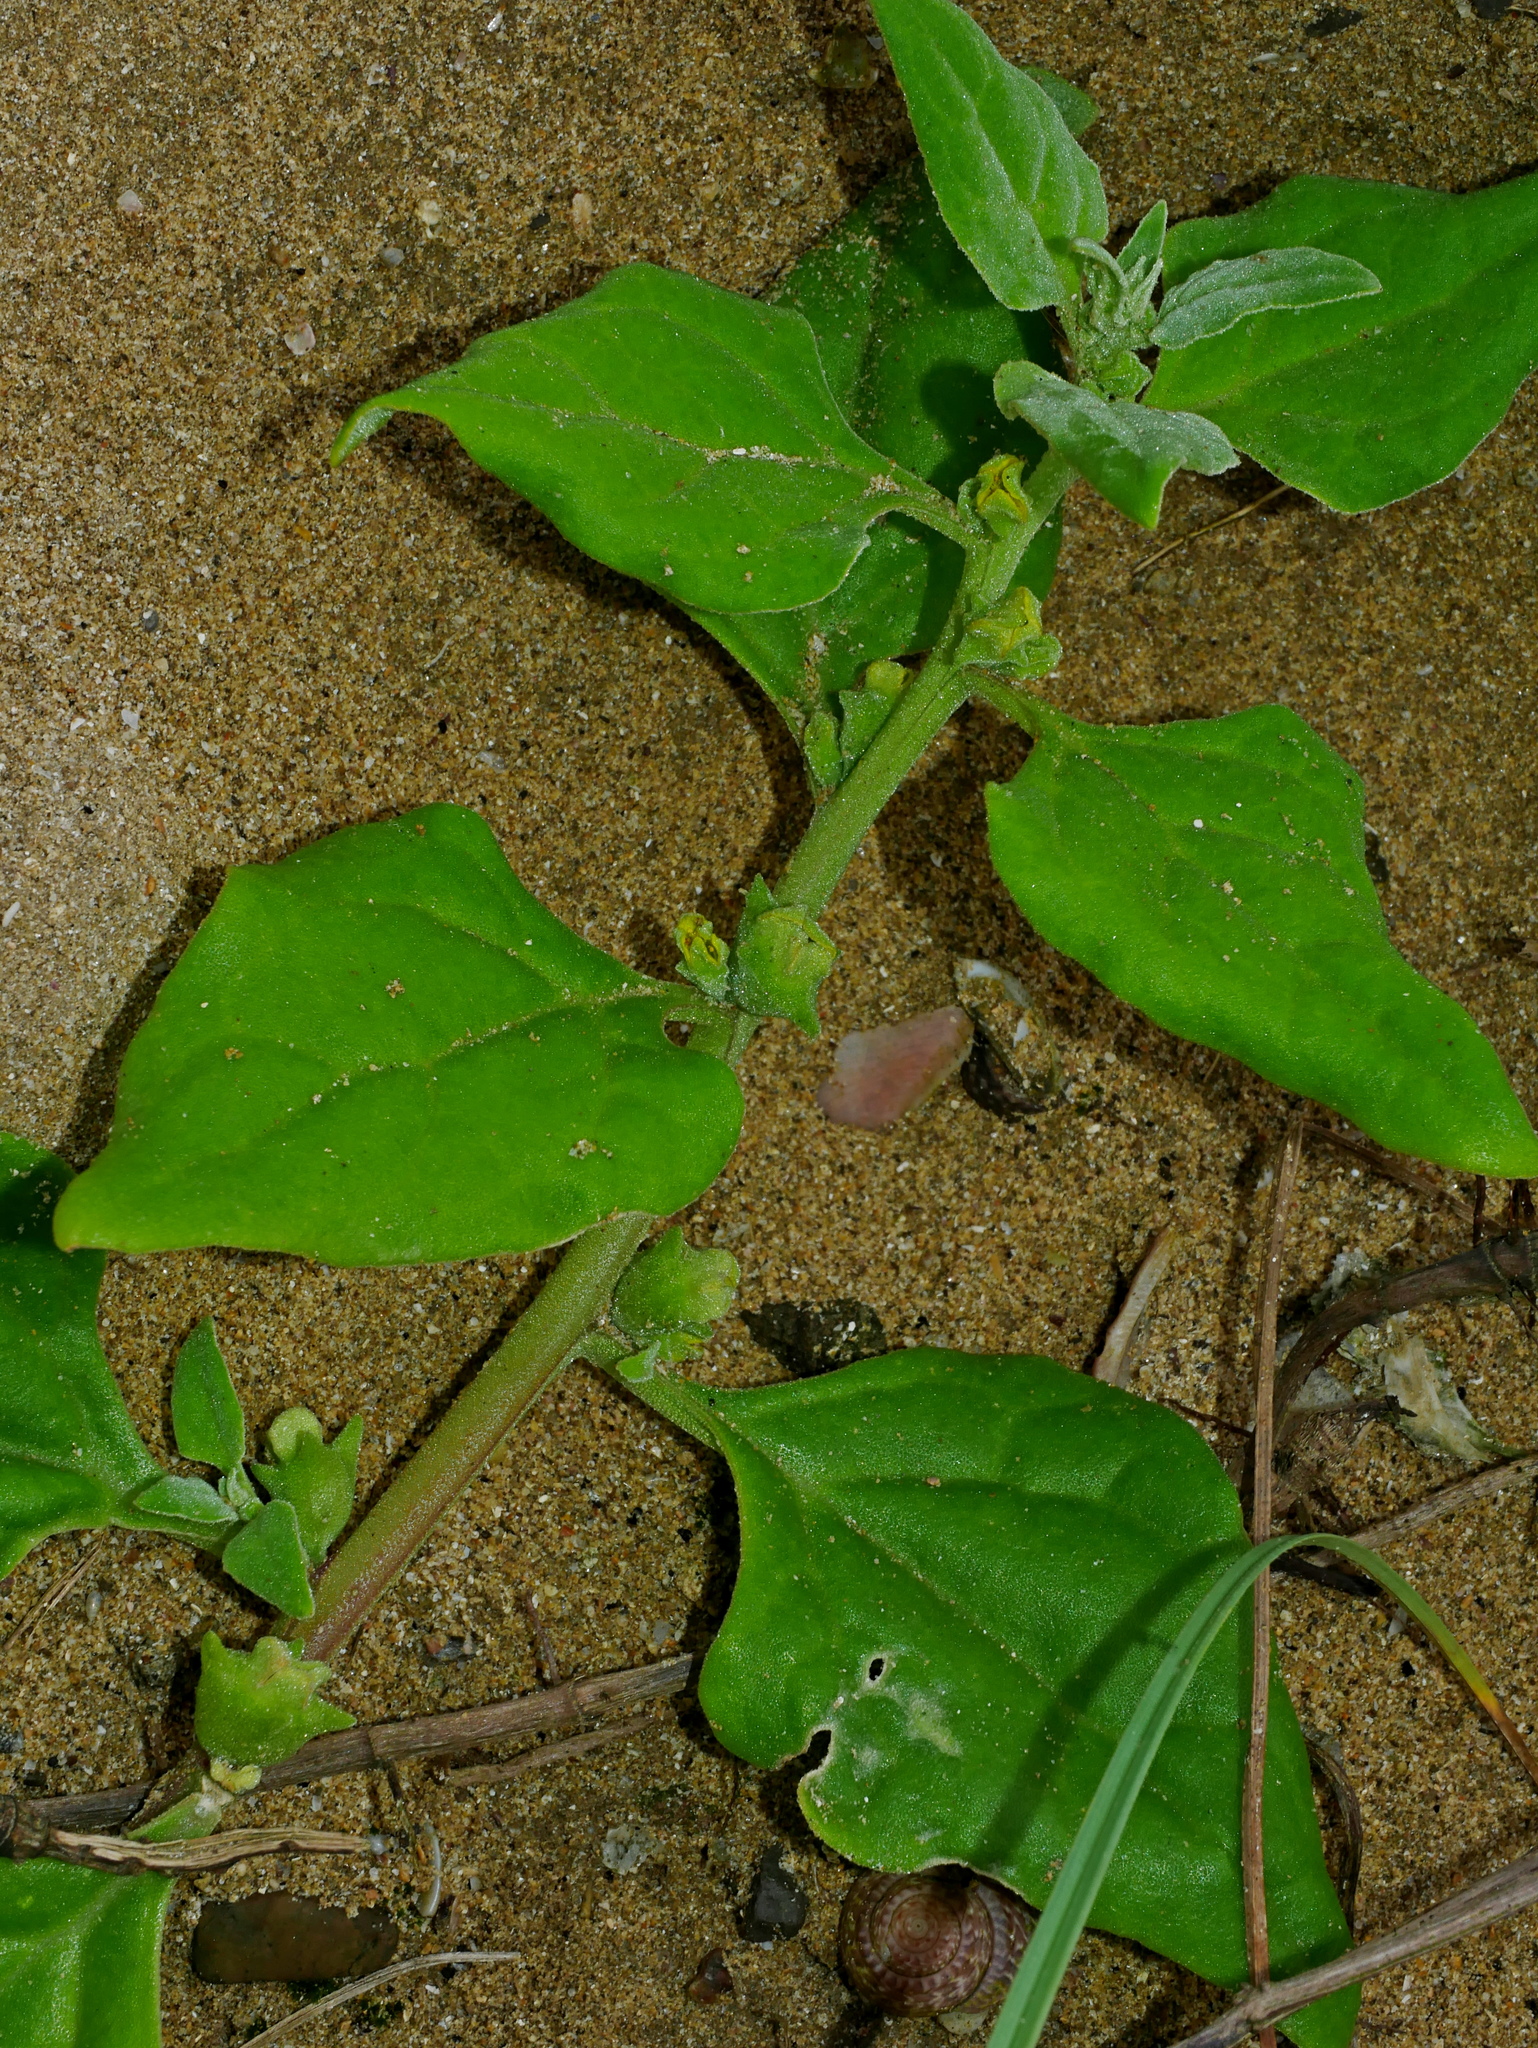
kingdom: Plantae
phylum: Tracheophyta
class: Magnoliopsida
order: Caryophyllales
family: Aizoaceae
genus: Tetragonia
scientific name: Tetragonia tetragonoides
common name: New zealand-spinach
